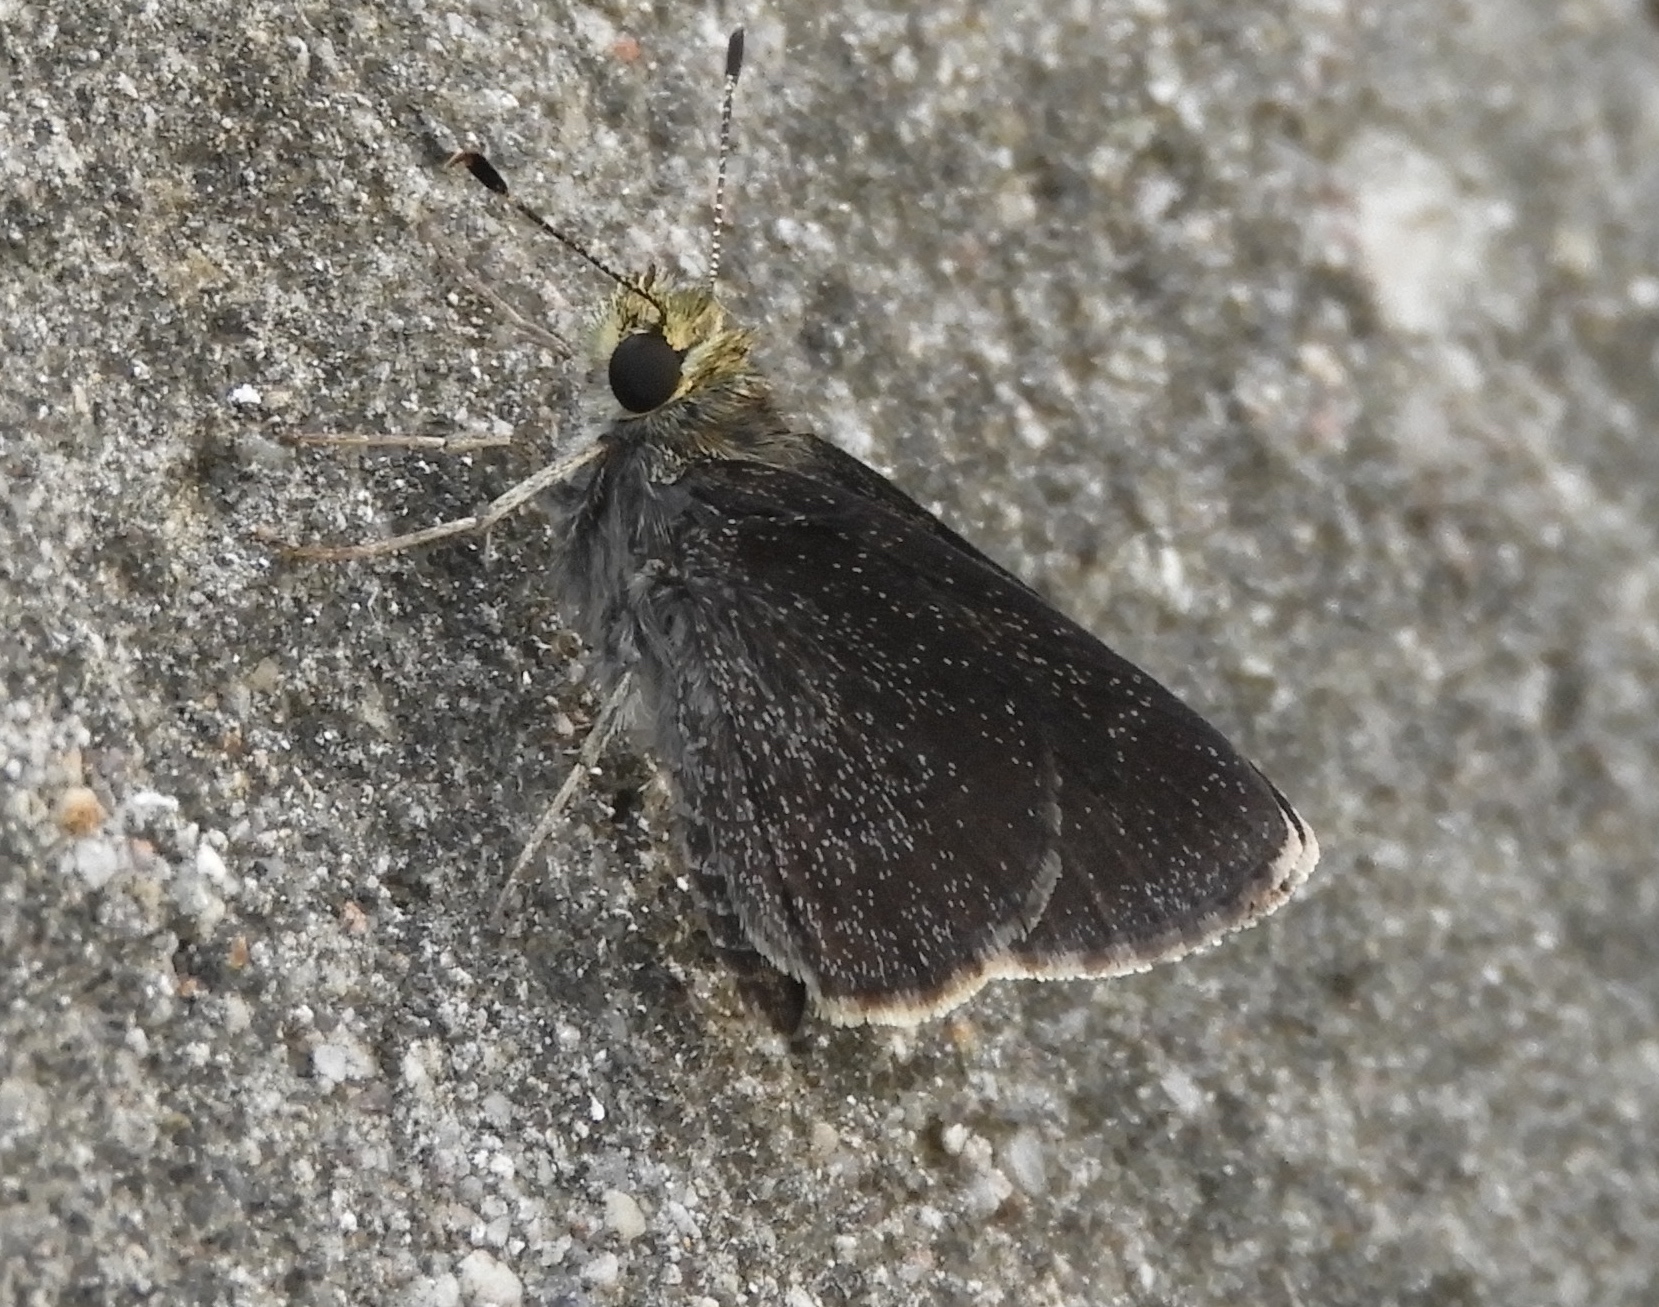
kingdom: Animalia
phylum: Arthropoda
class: Insecta
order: Lepidoptera
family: Hesperiidae
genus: Repens
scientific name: Repens
